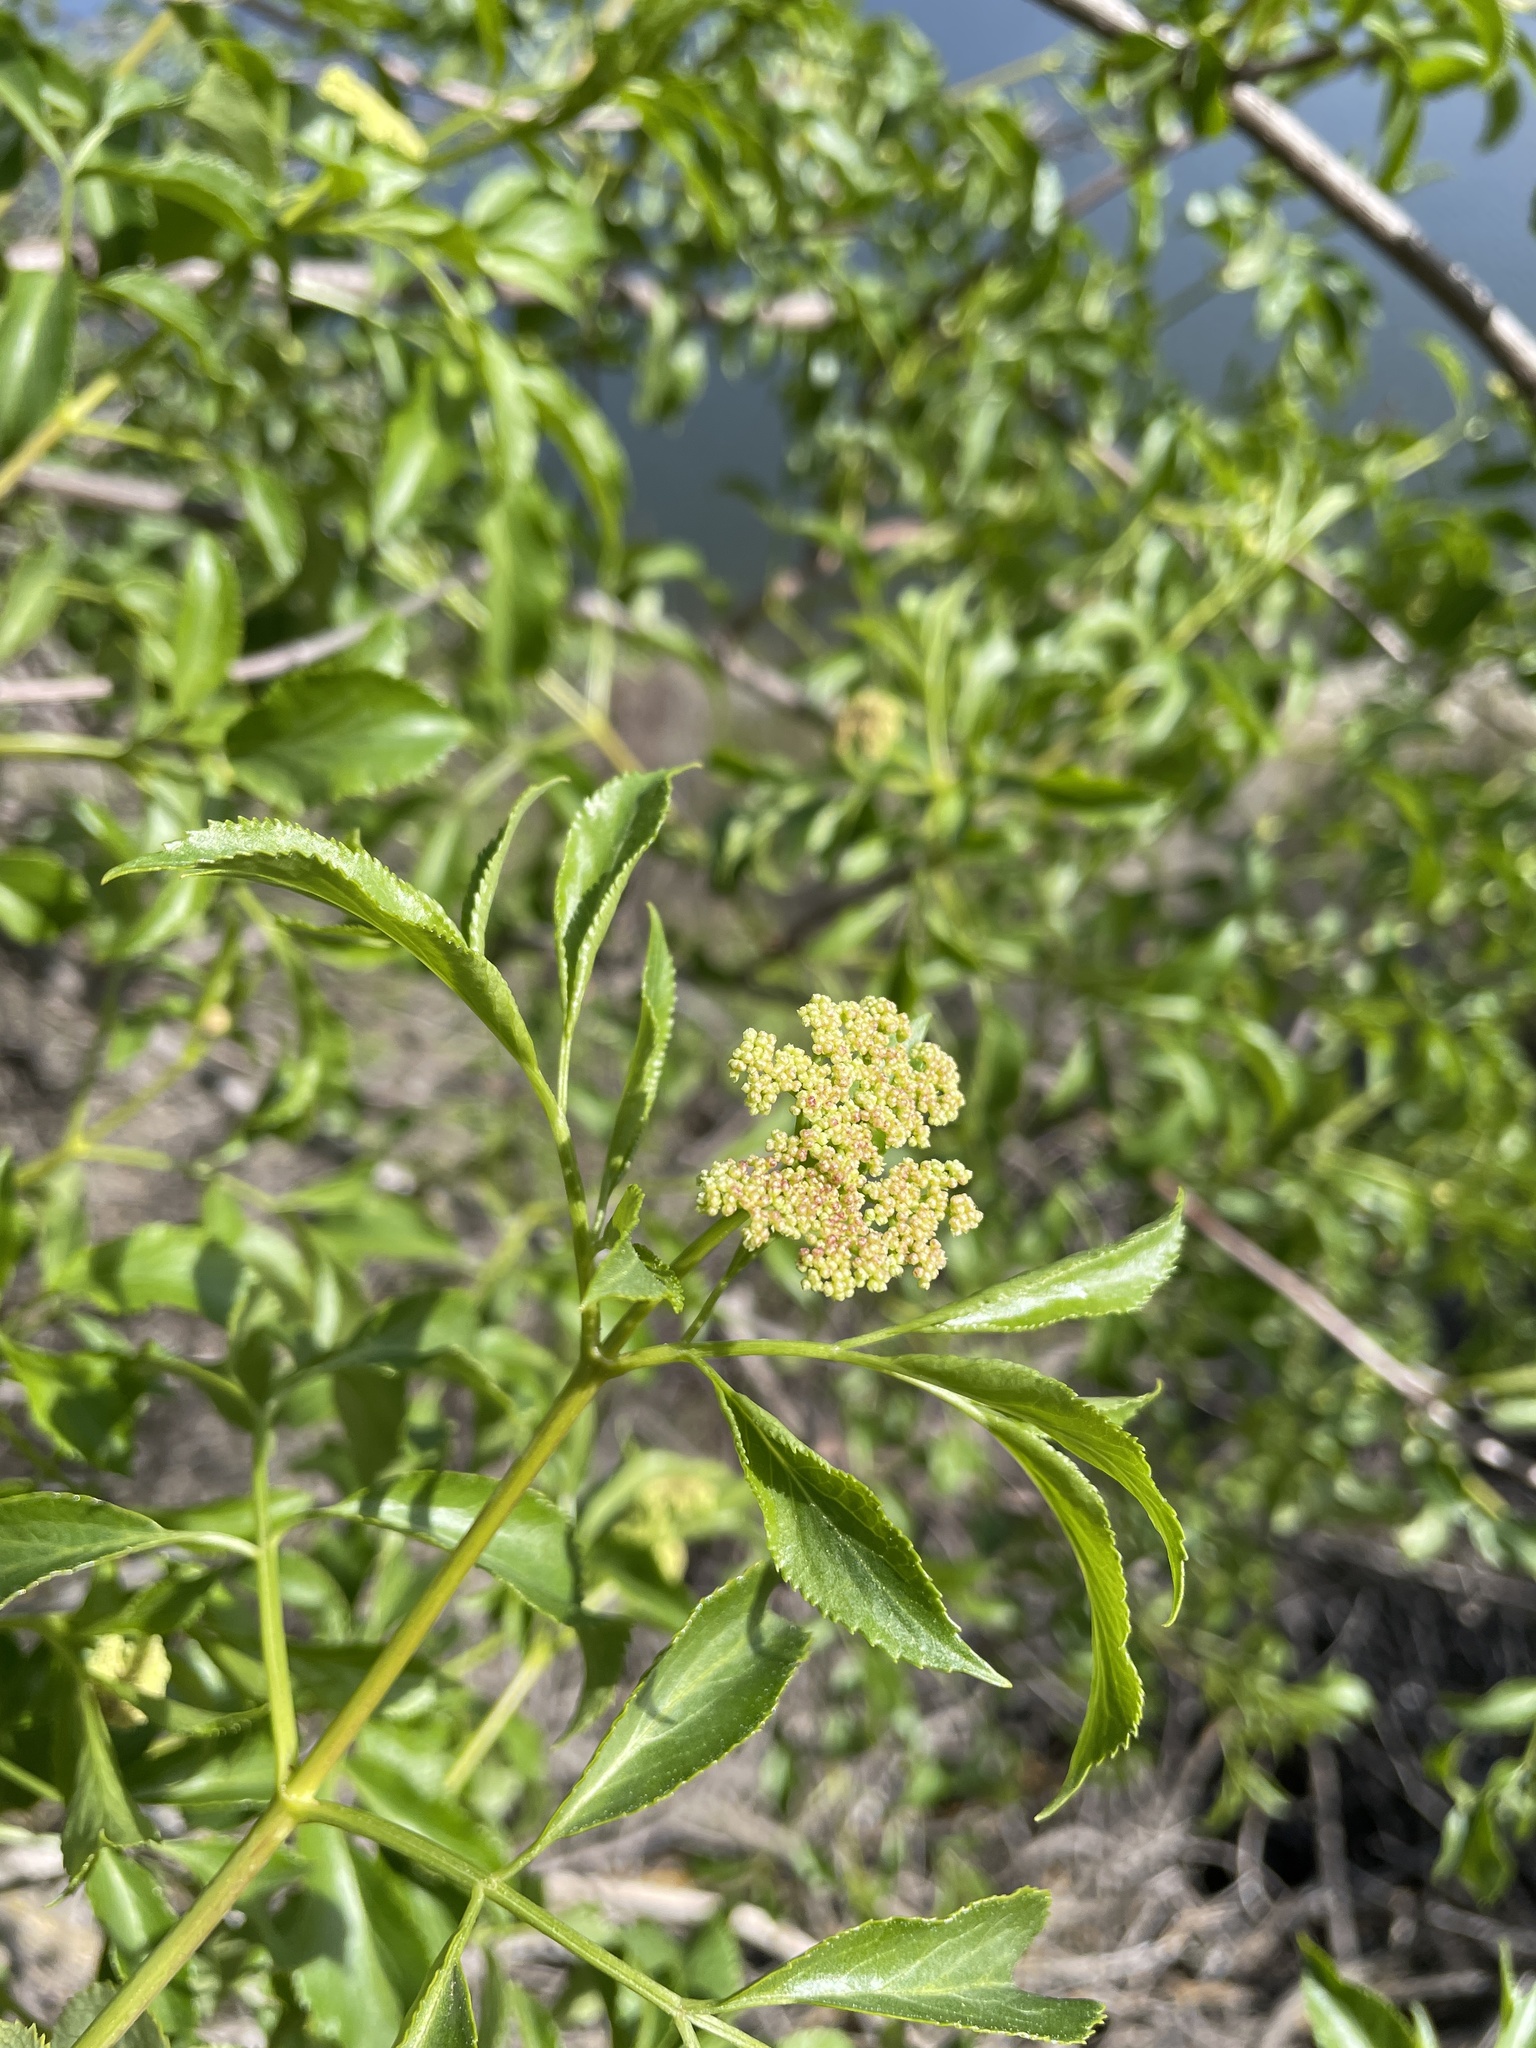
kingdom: Plantae
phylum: Tracheophyta
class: Magnoliopsida
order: Dipsacales
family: Viburnaceae
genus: Sambucus
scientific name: Sambucus cerulea
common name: Blue elder
